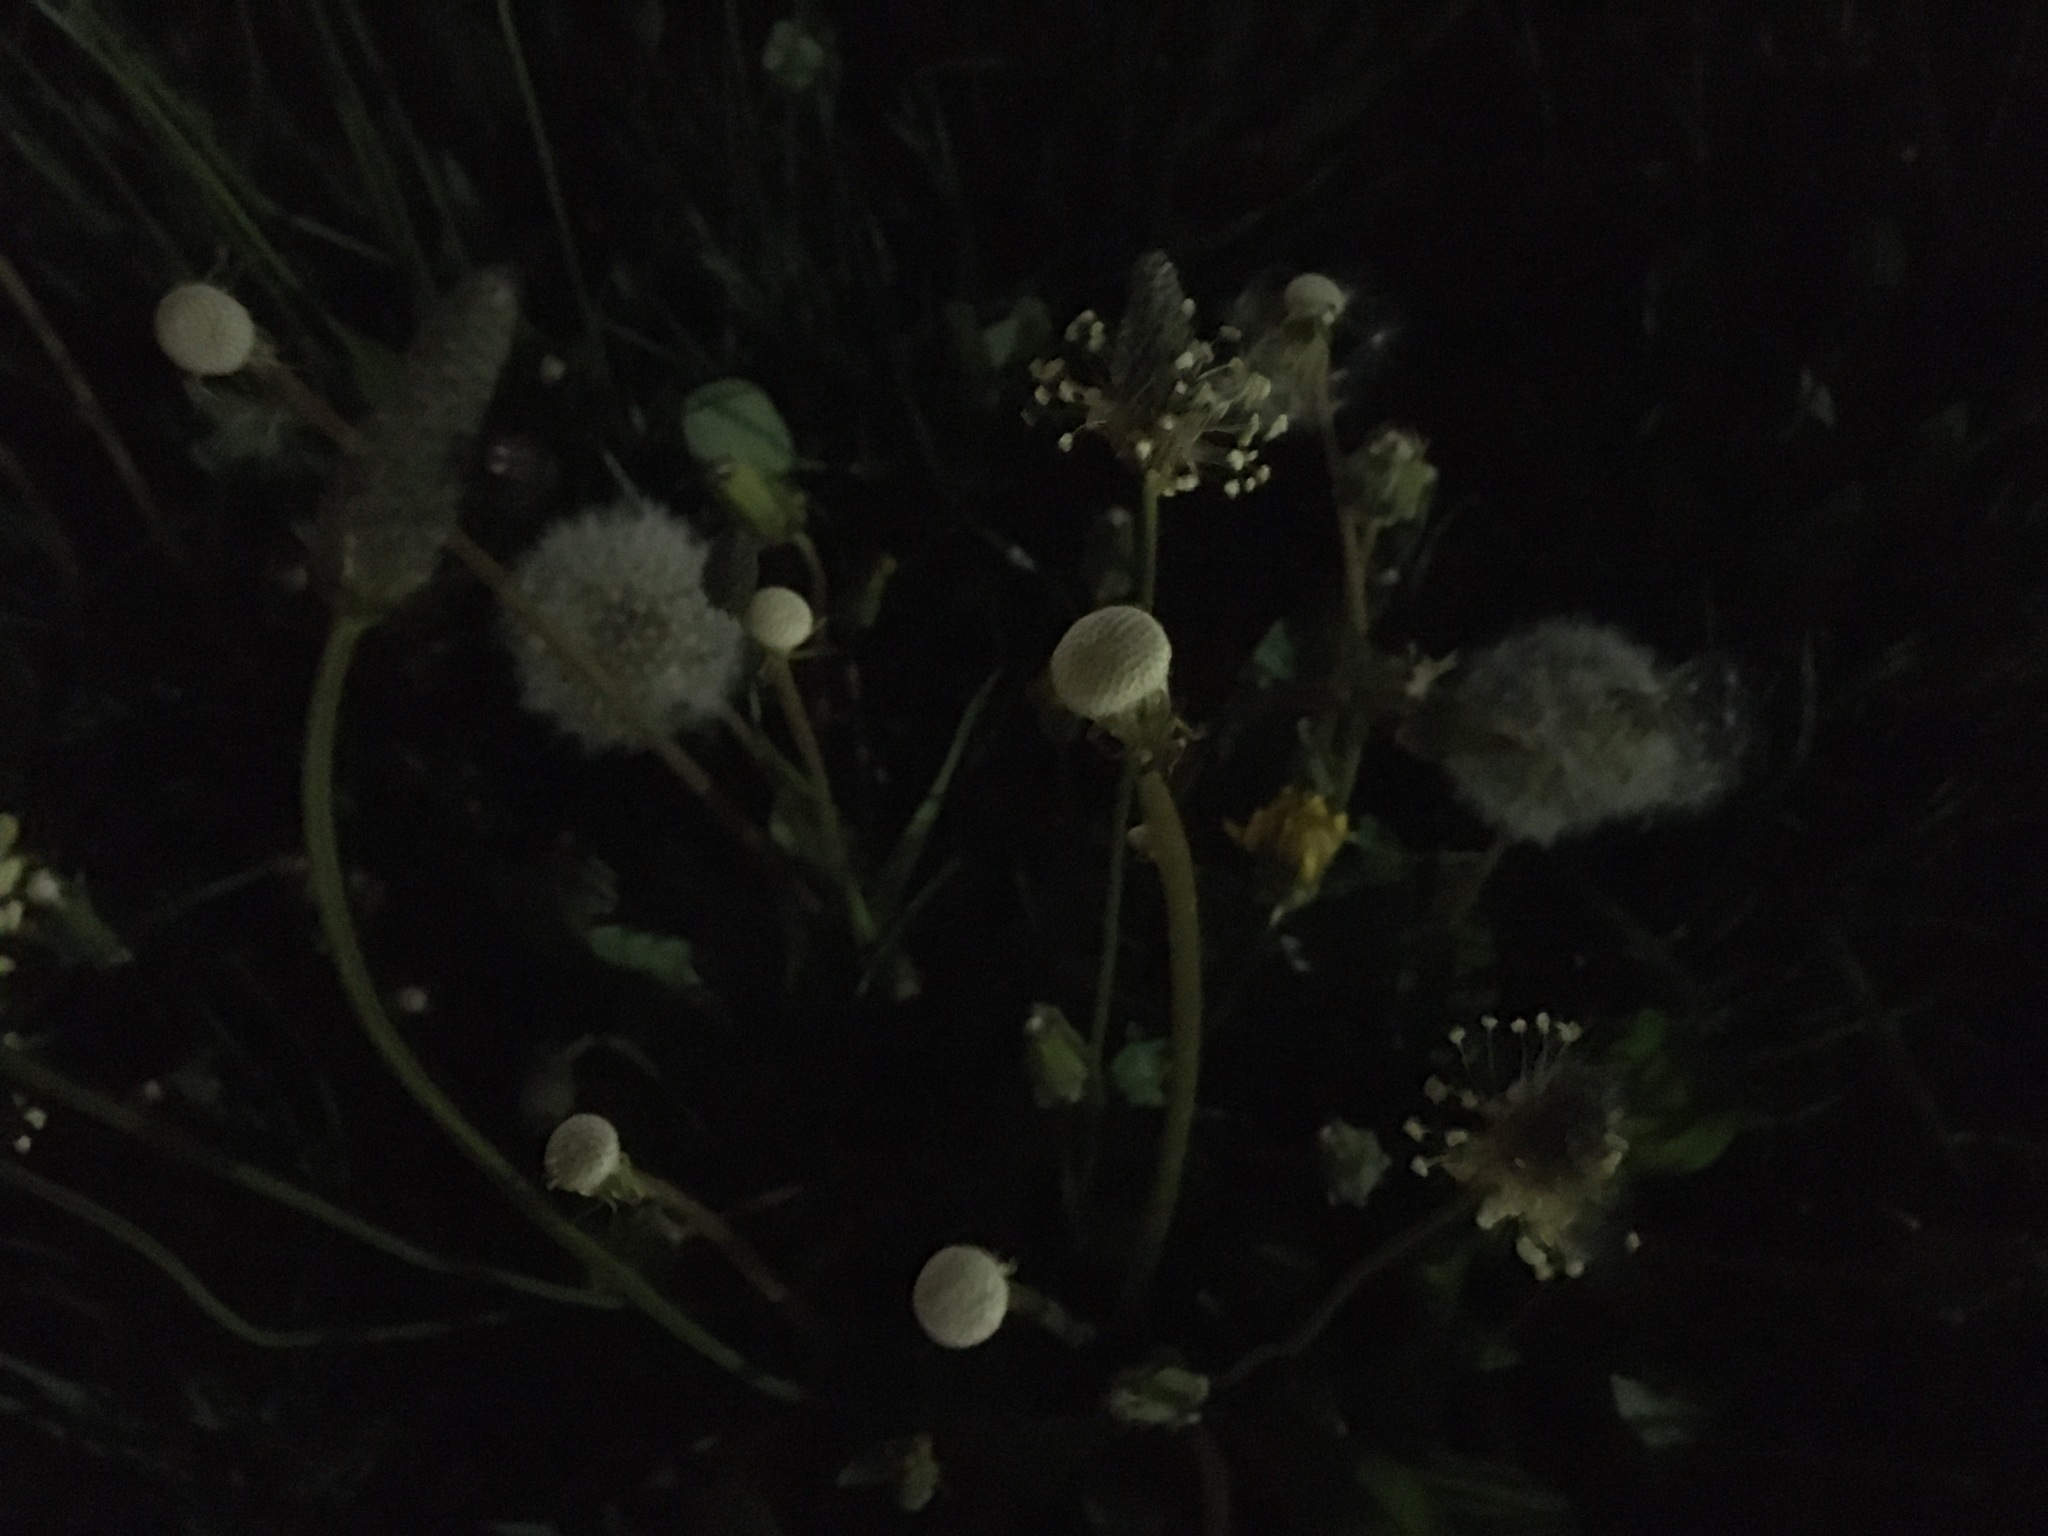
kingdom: Plantae
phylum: Tracheophyta
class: Magnoliopsida
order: Asterales
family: Asteraceae
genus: Taraxacum
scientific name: Taraxacum officinale
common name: Common dandelion
